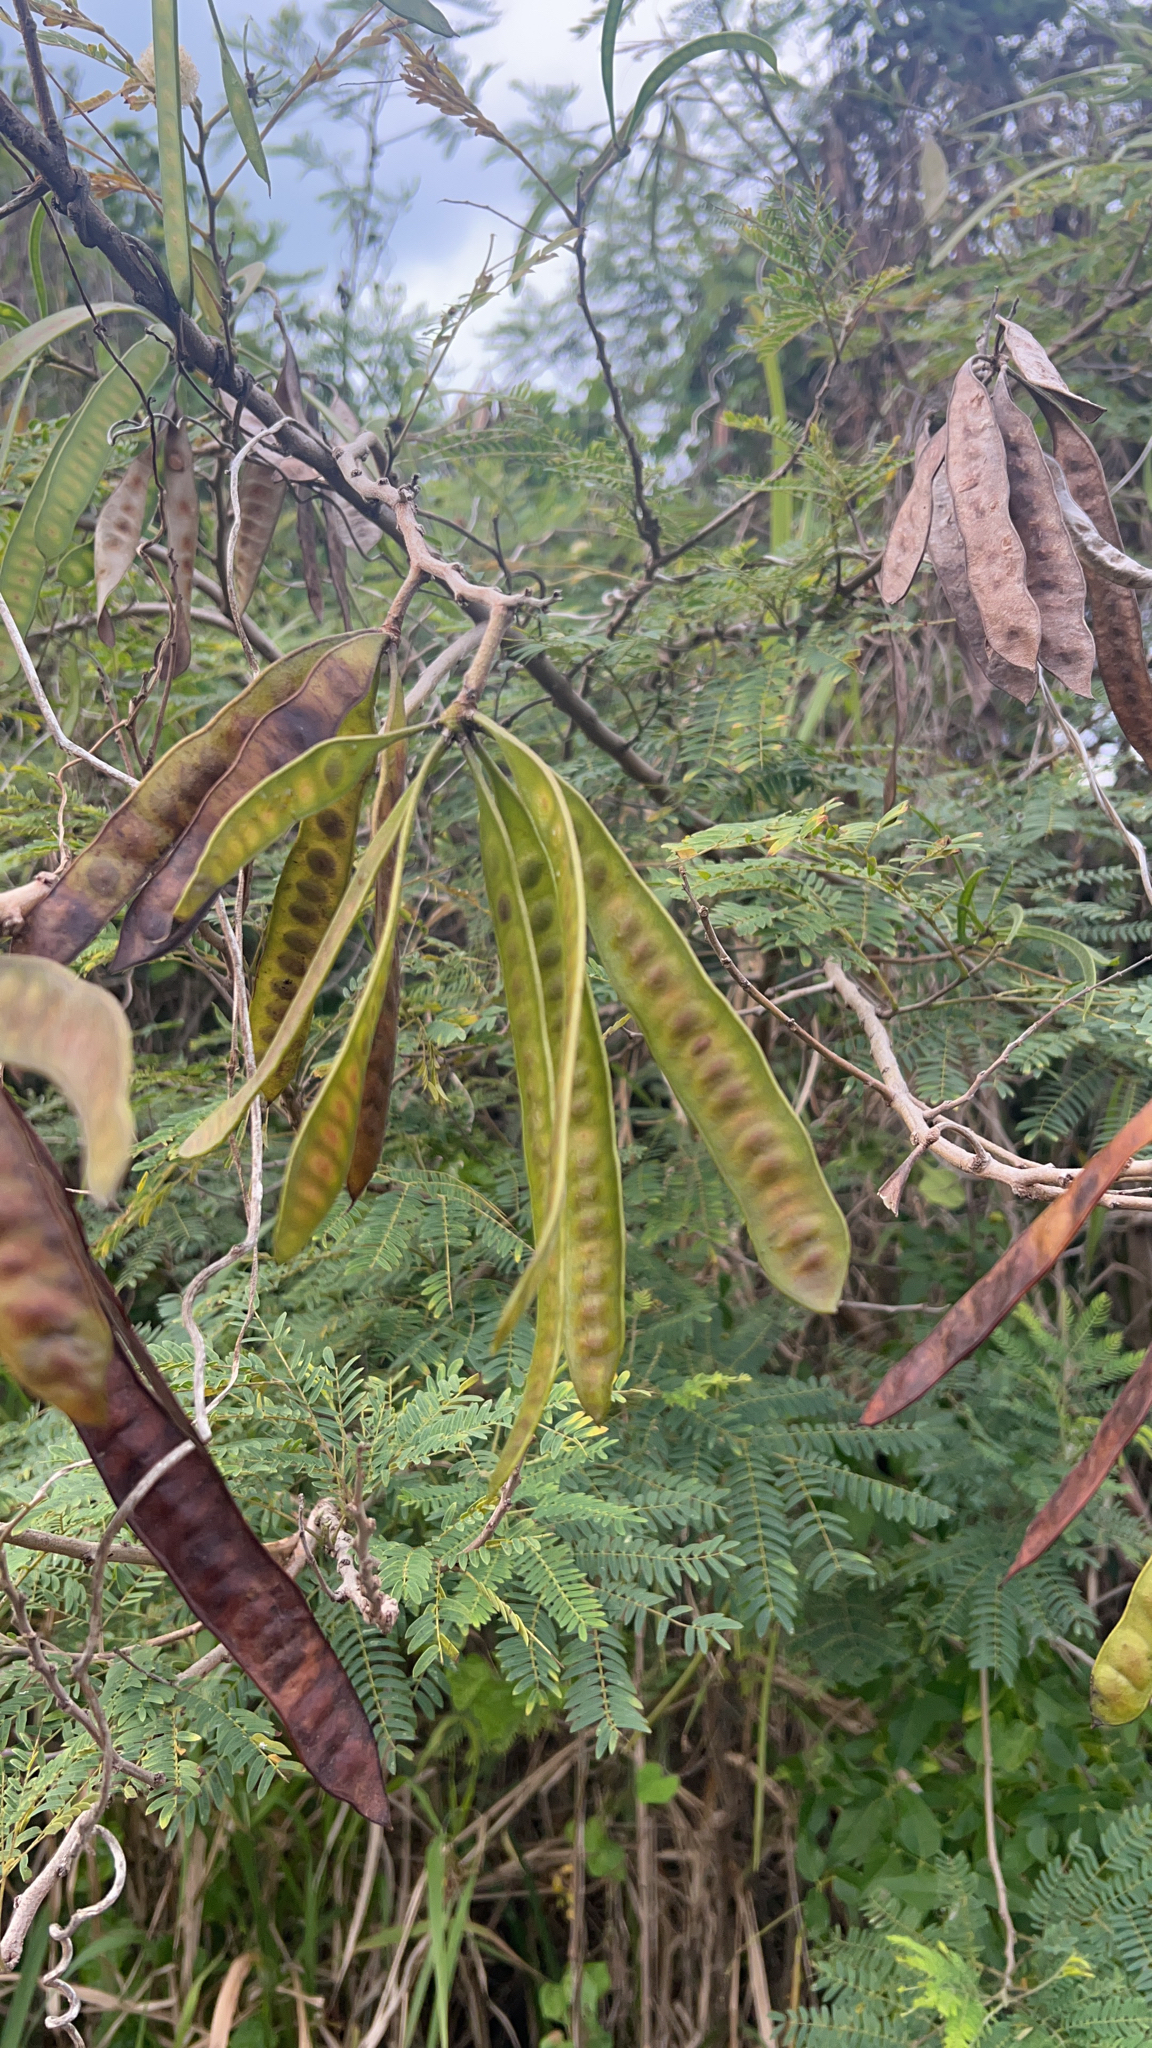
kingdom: Plantae
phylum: Tracheophyta
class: Magnoliopsida
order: Fabales
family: Fabaceae
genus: Leucaena
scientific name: Leucaena leucocephala
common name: White leadtree
